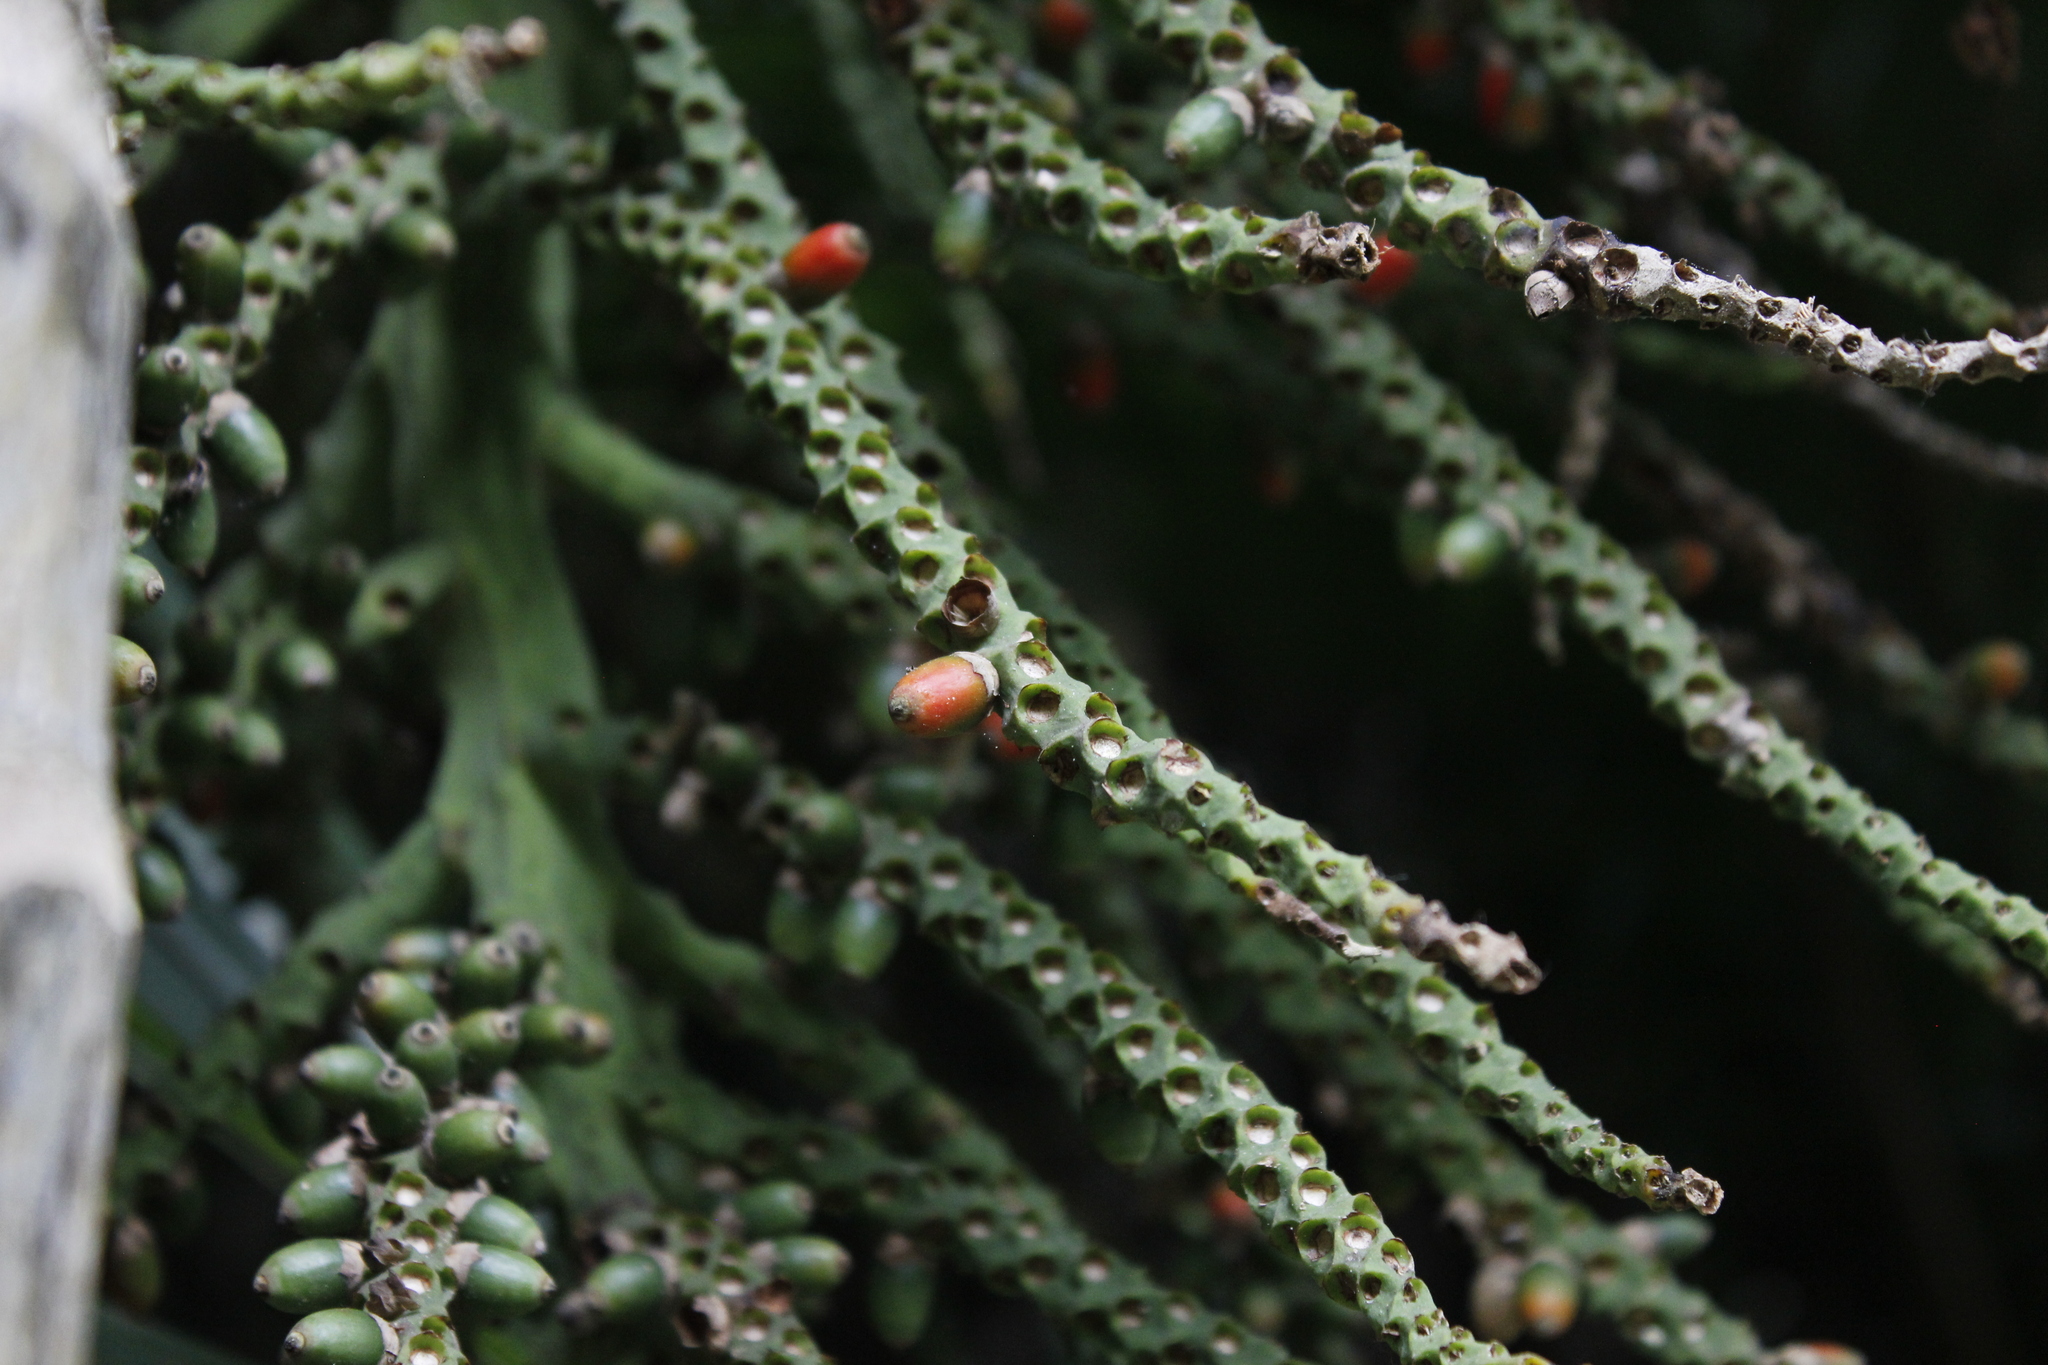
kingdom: Plantae
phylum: Tracheophyta
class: Liliopsida
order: Arecales
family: Arecaceae
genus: Rhopalostylis
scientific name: Rhopalostylis sapida
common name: Feather-duster palm
